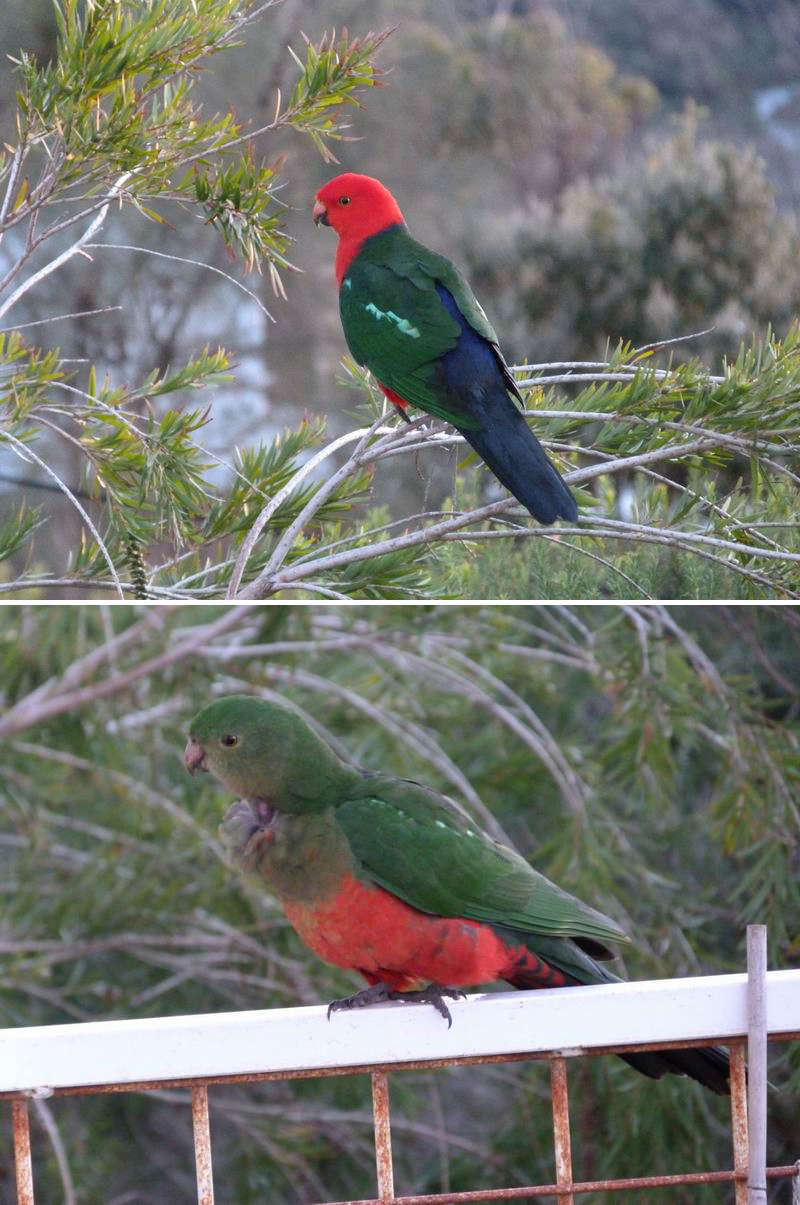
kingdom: Animalia
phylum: Chordata
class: Aves
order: Psittaciformes
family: Psittacidae
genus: Alisterus
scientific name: Alisterus scapularis
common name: Australian king parrot
